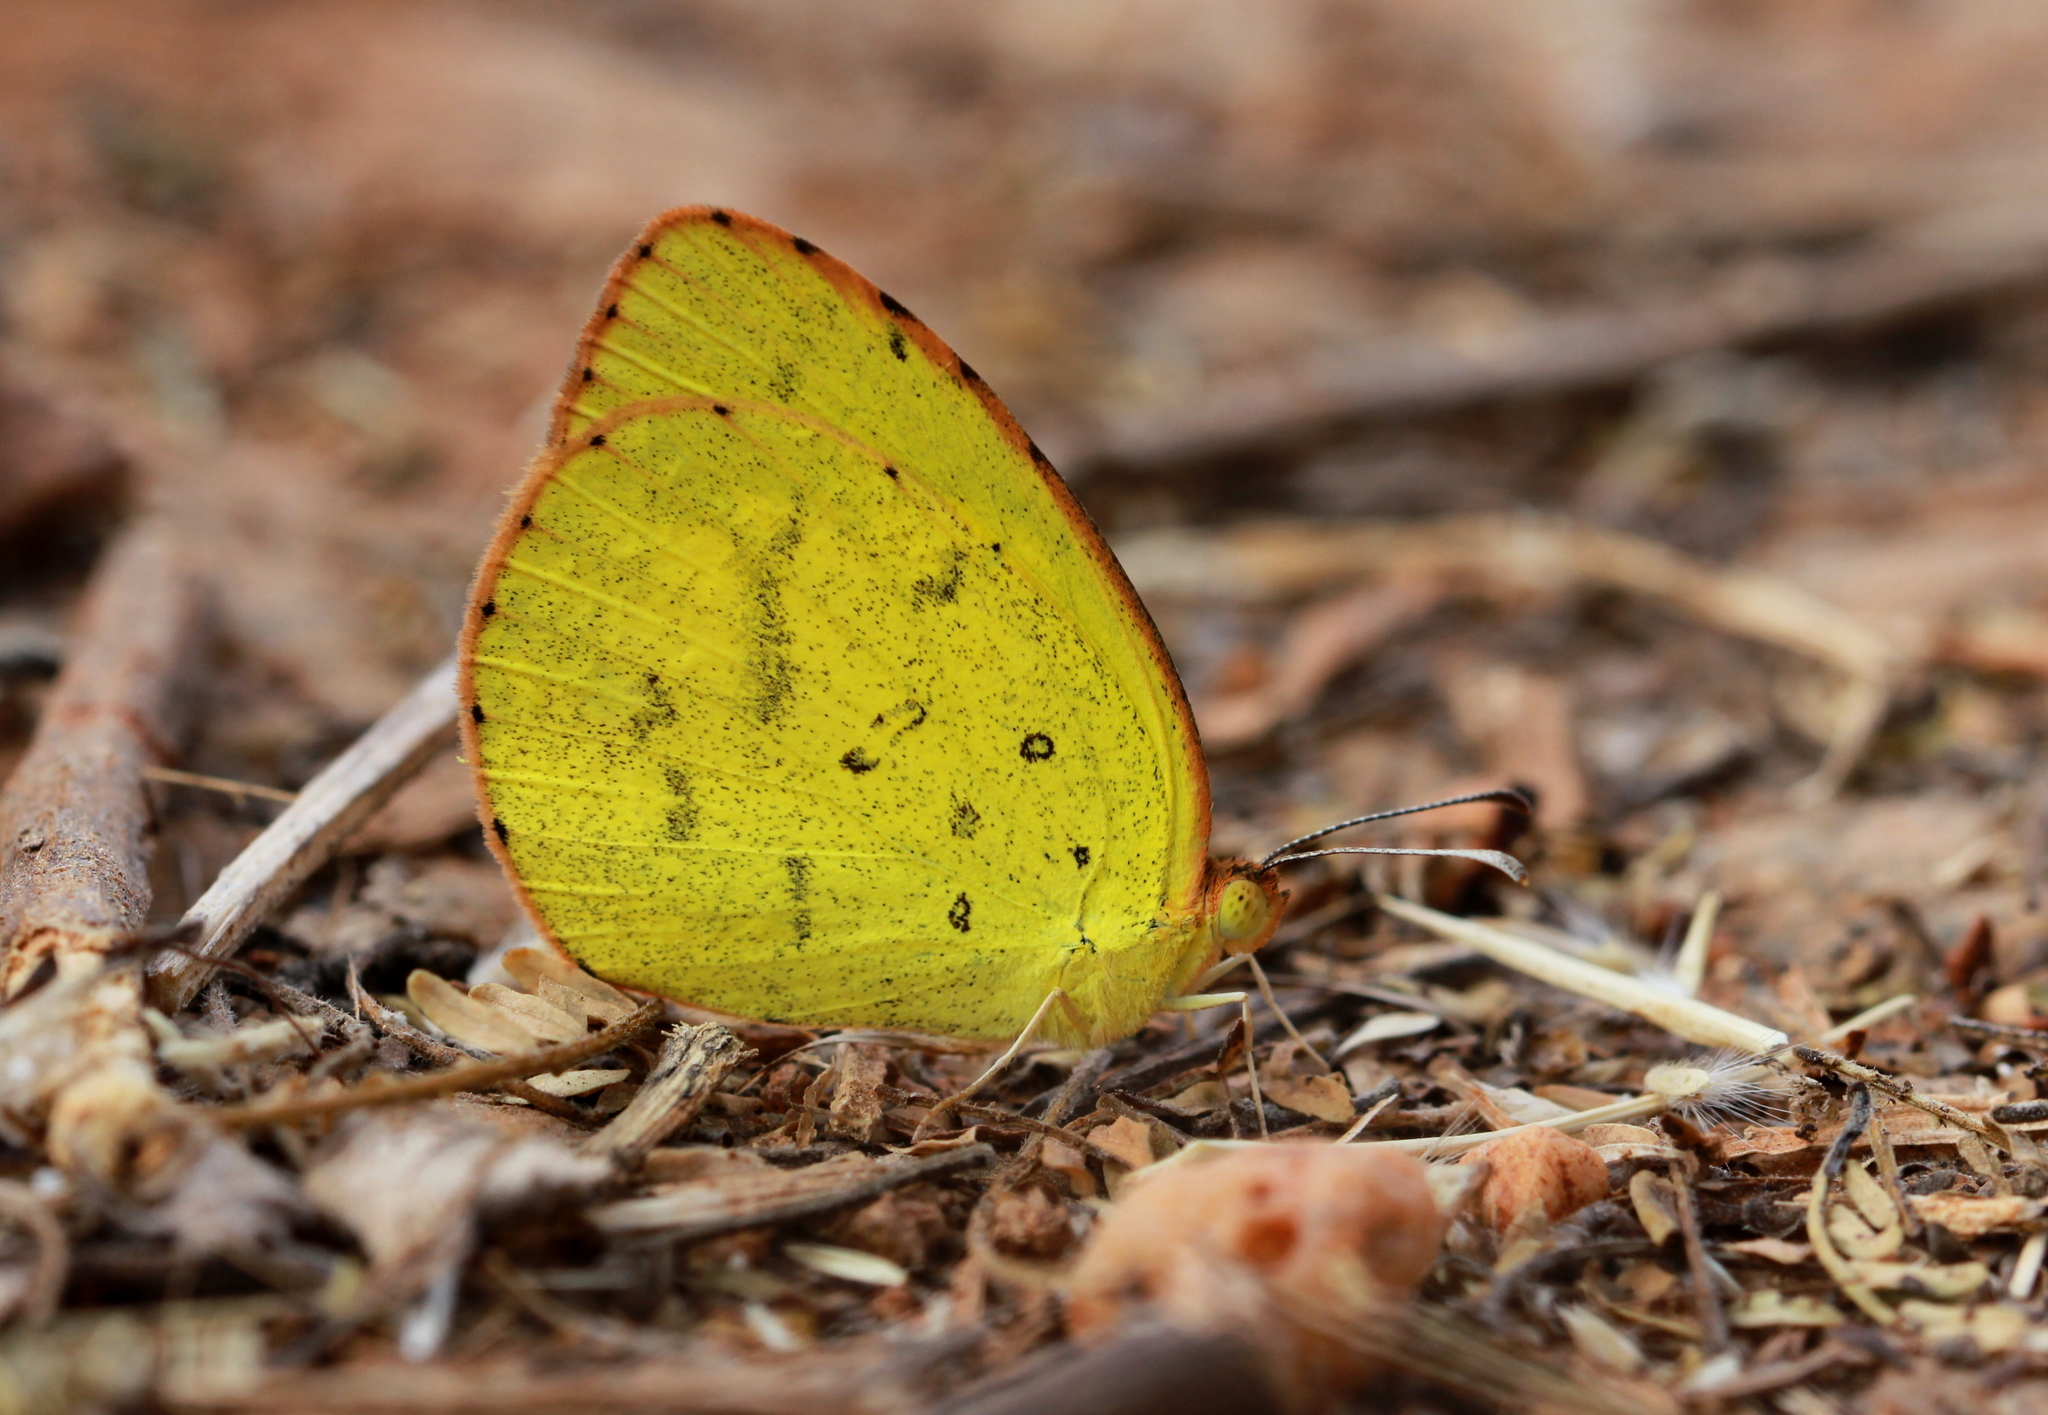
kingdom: Animalia
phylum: Arthropoda
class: Insecta
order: Lepidoptera
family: Pieridae
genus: Eurema
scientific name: Eurema brigitta
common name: Small grass yellow
